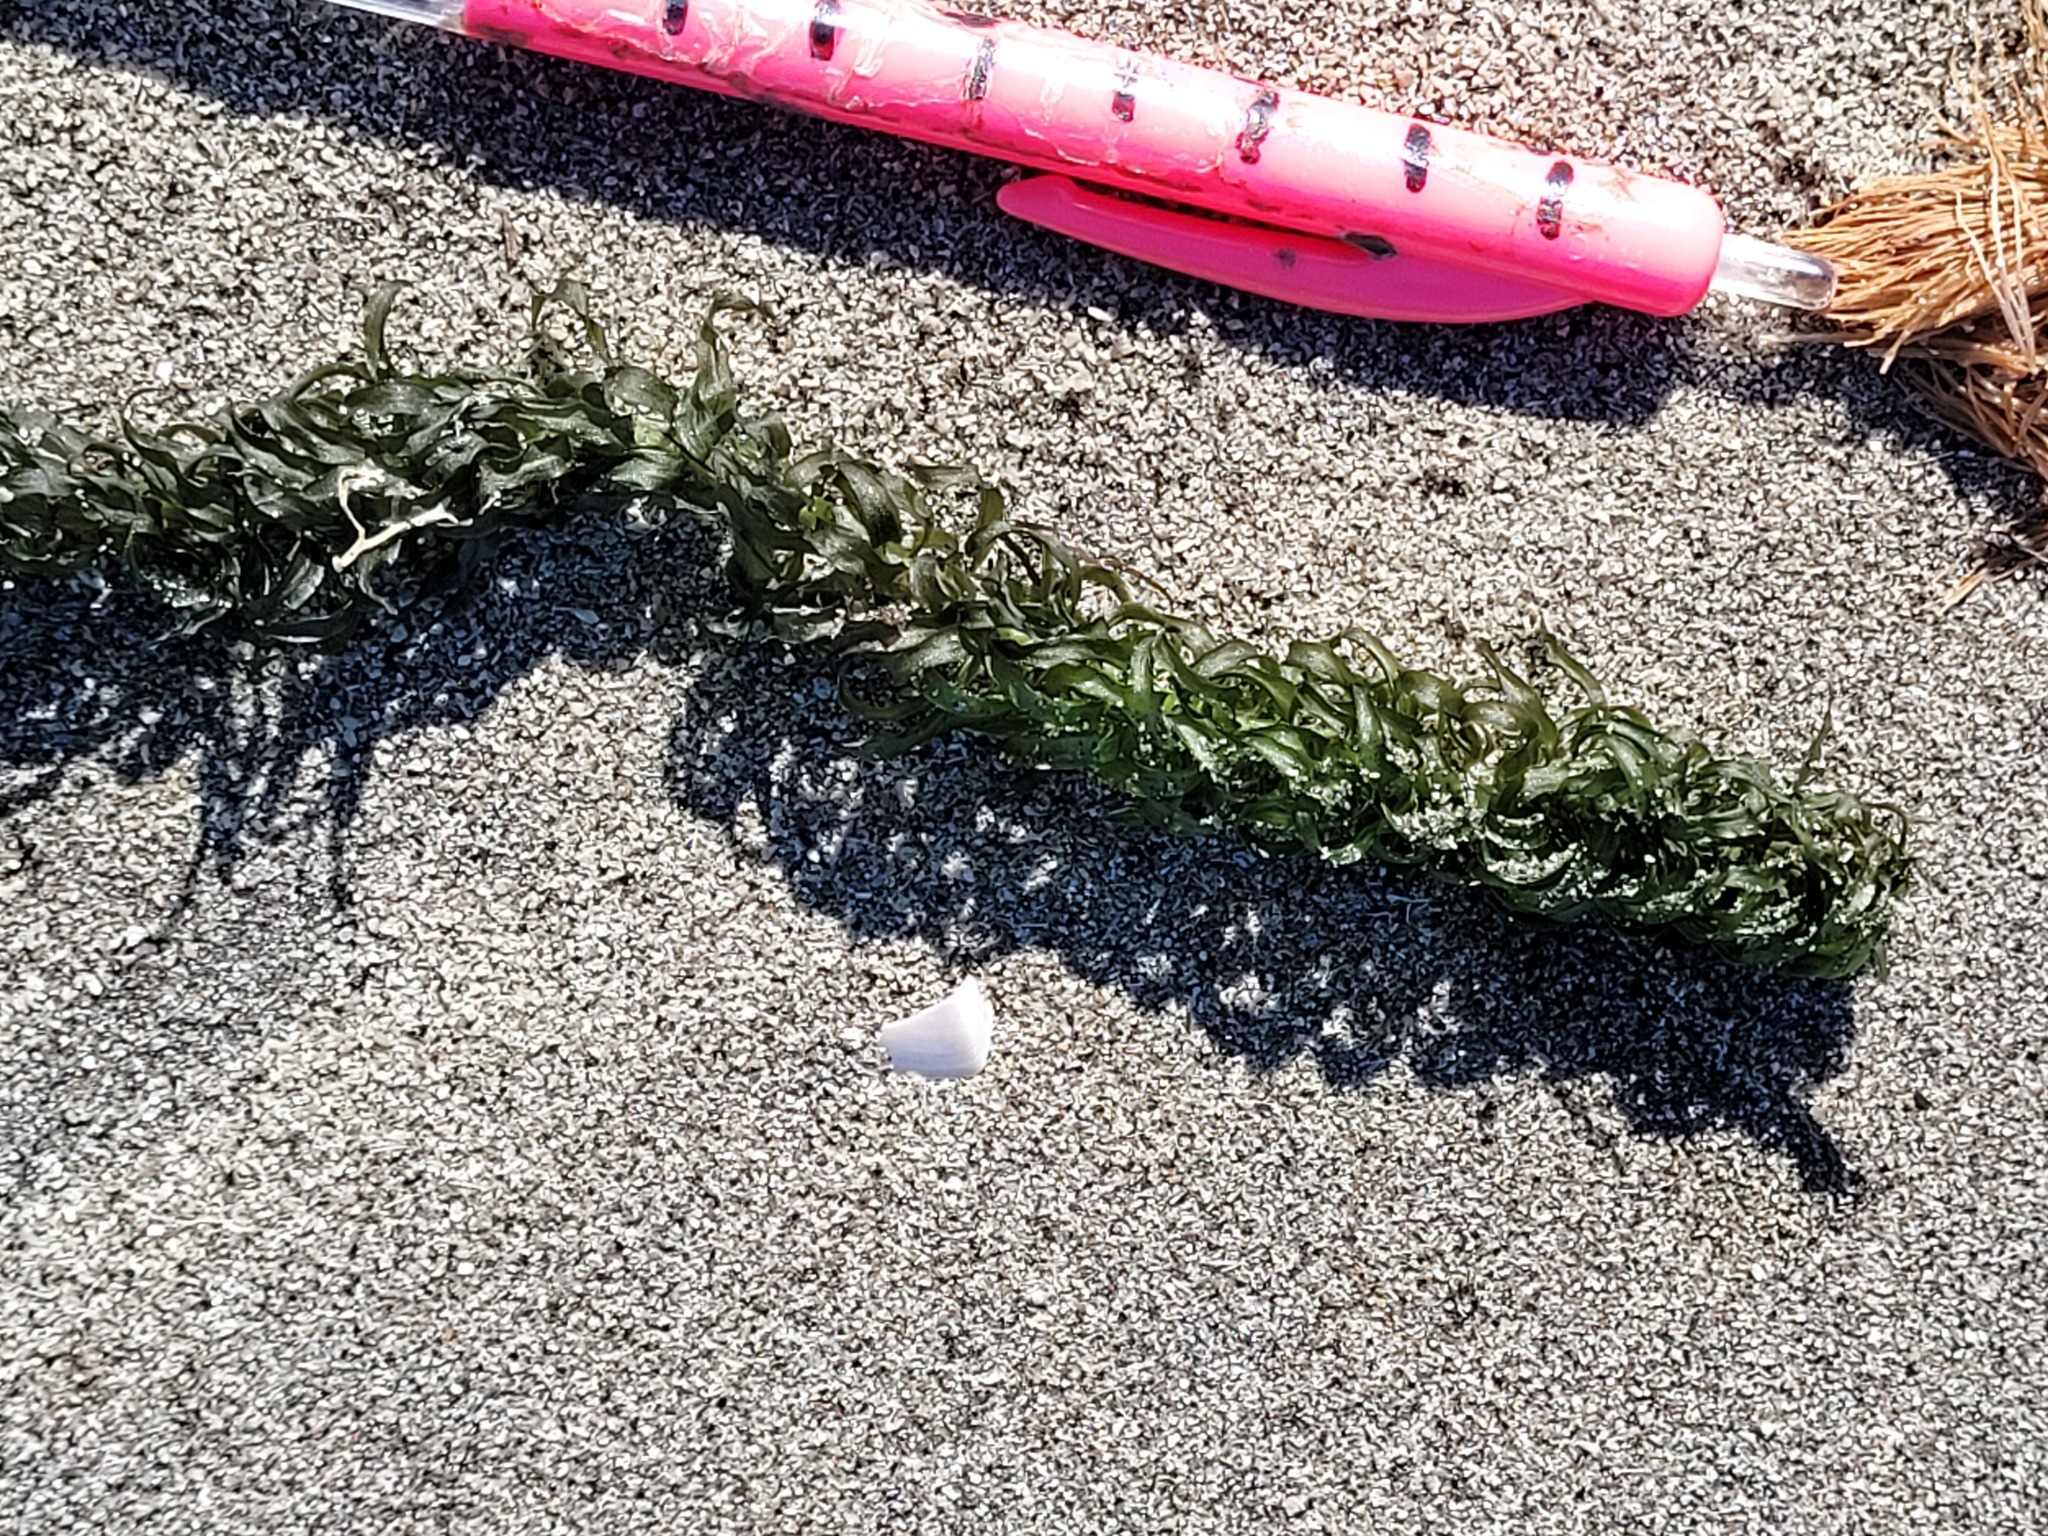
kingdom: Plantae
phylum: Tracheophyta
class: Liliopsida
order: Alismatales
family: Hydrocharitaceae
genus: Lagarosiphon
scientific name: Lagarosiphon major
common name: Curly waterweed
